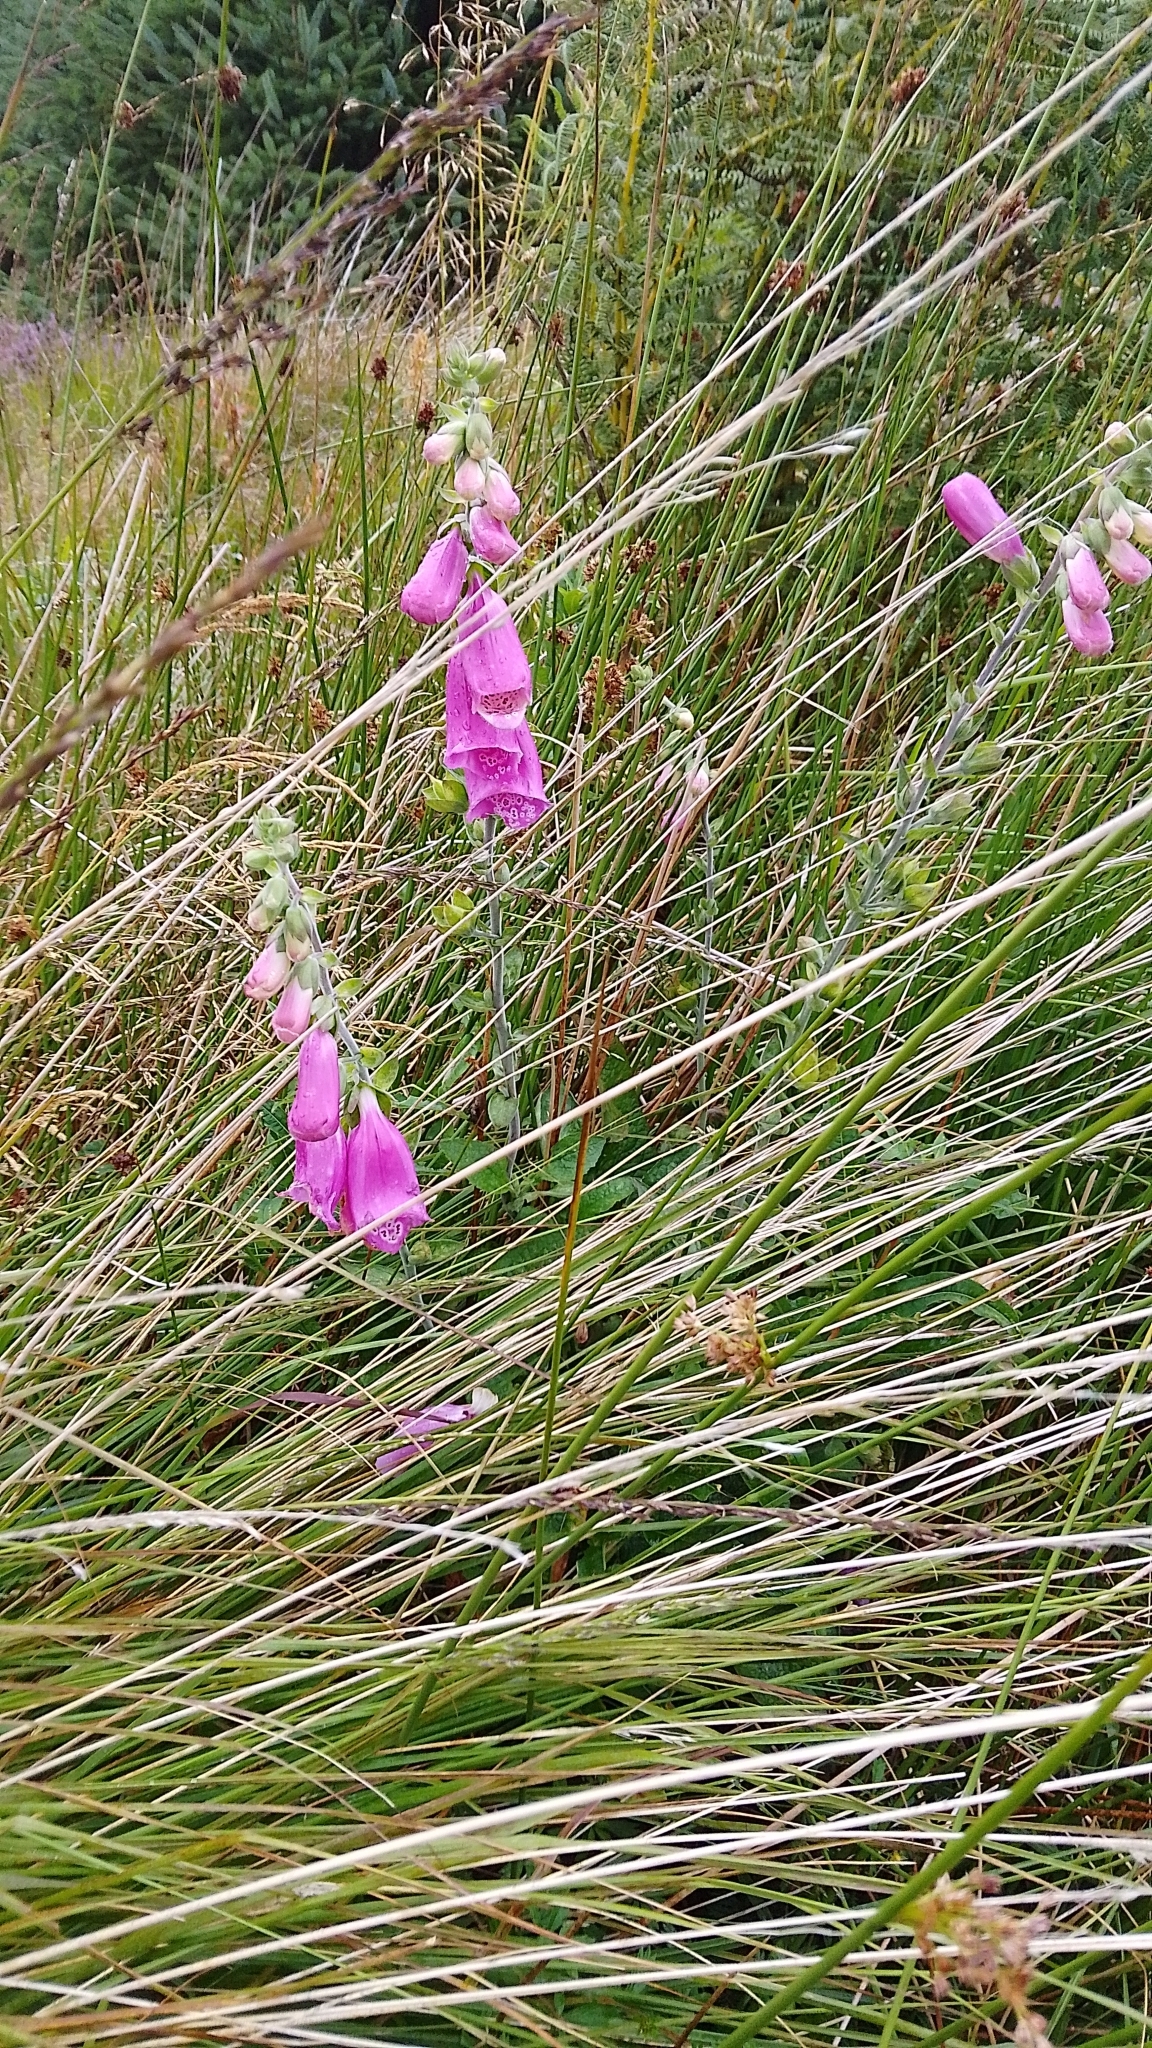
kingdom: Plantae
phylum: Tracheophyta
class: Magnoliopsida
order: Lamiales
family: Plantaginaceae
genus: Digitalis
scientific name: Digitalis purpurea
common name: Foxglove
